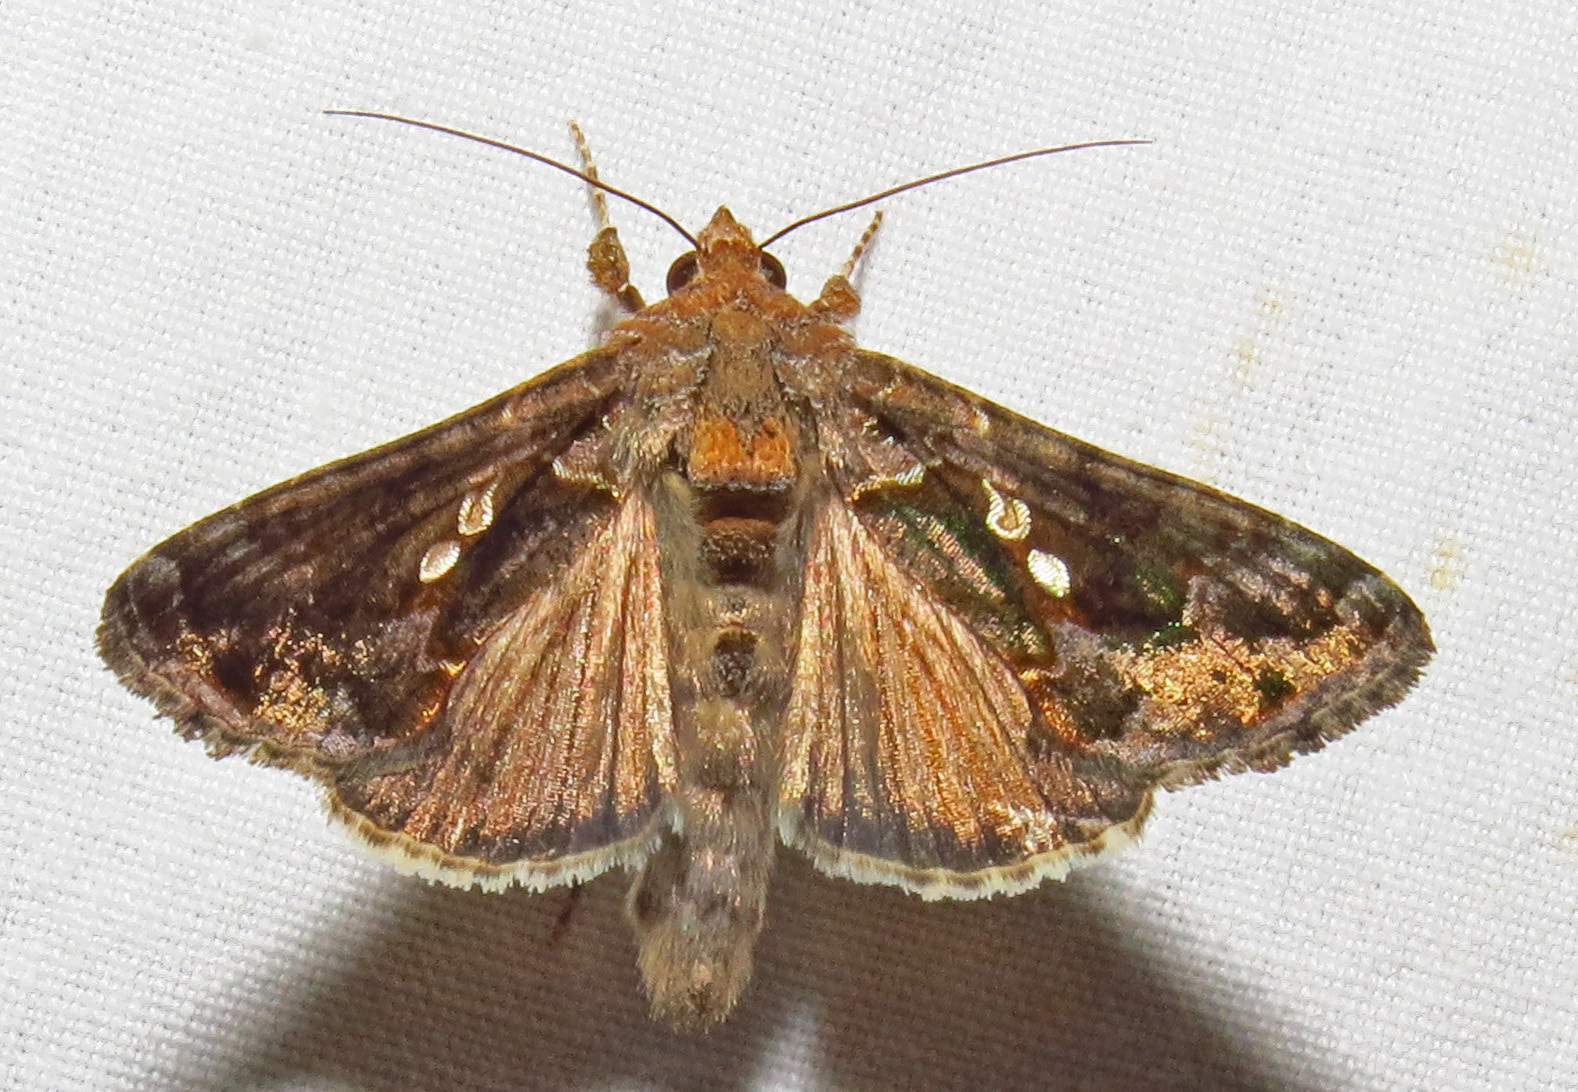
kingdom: Animalia
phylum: Arthropoda
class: Insecta
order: Lepidoptera
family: Noctuidae
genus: Chrysodeixis
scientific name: Chrysodeixis includens
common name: Cutworm moth
